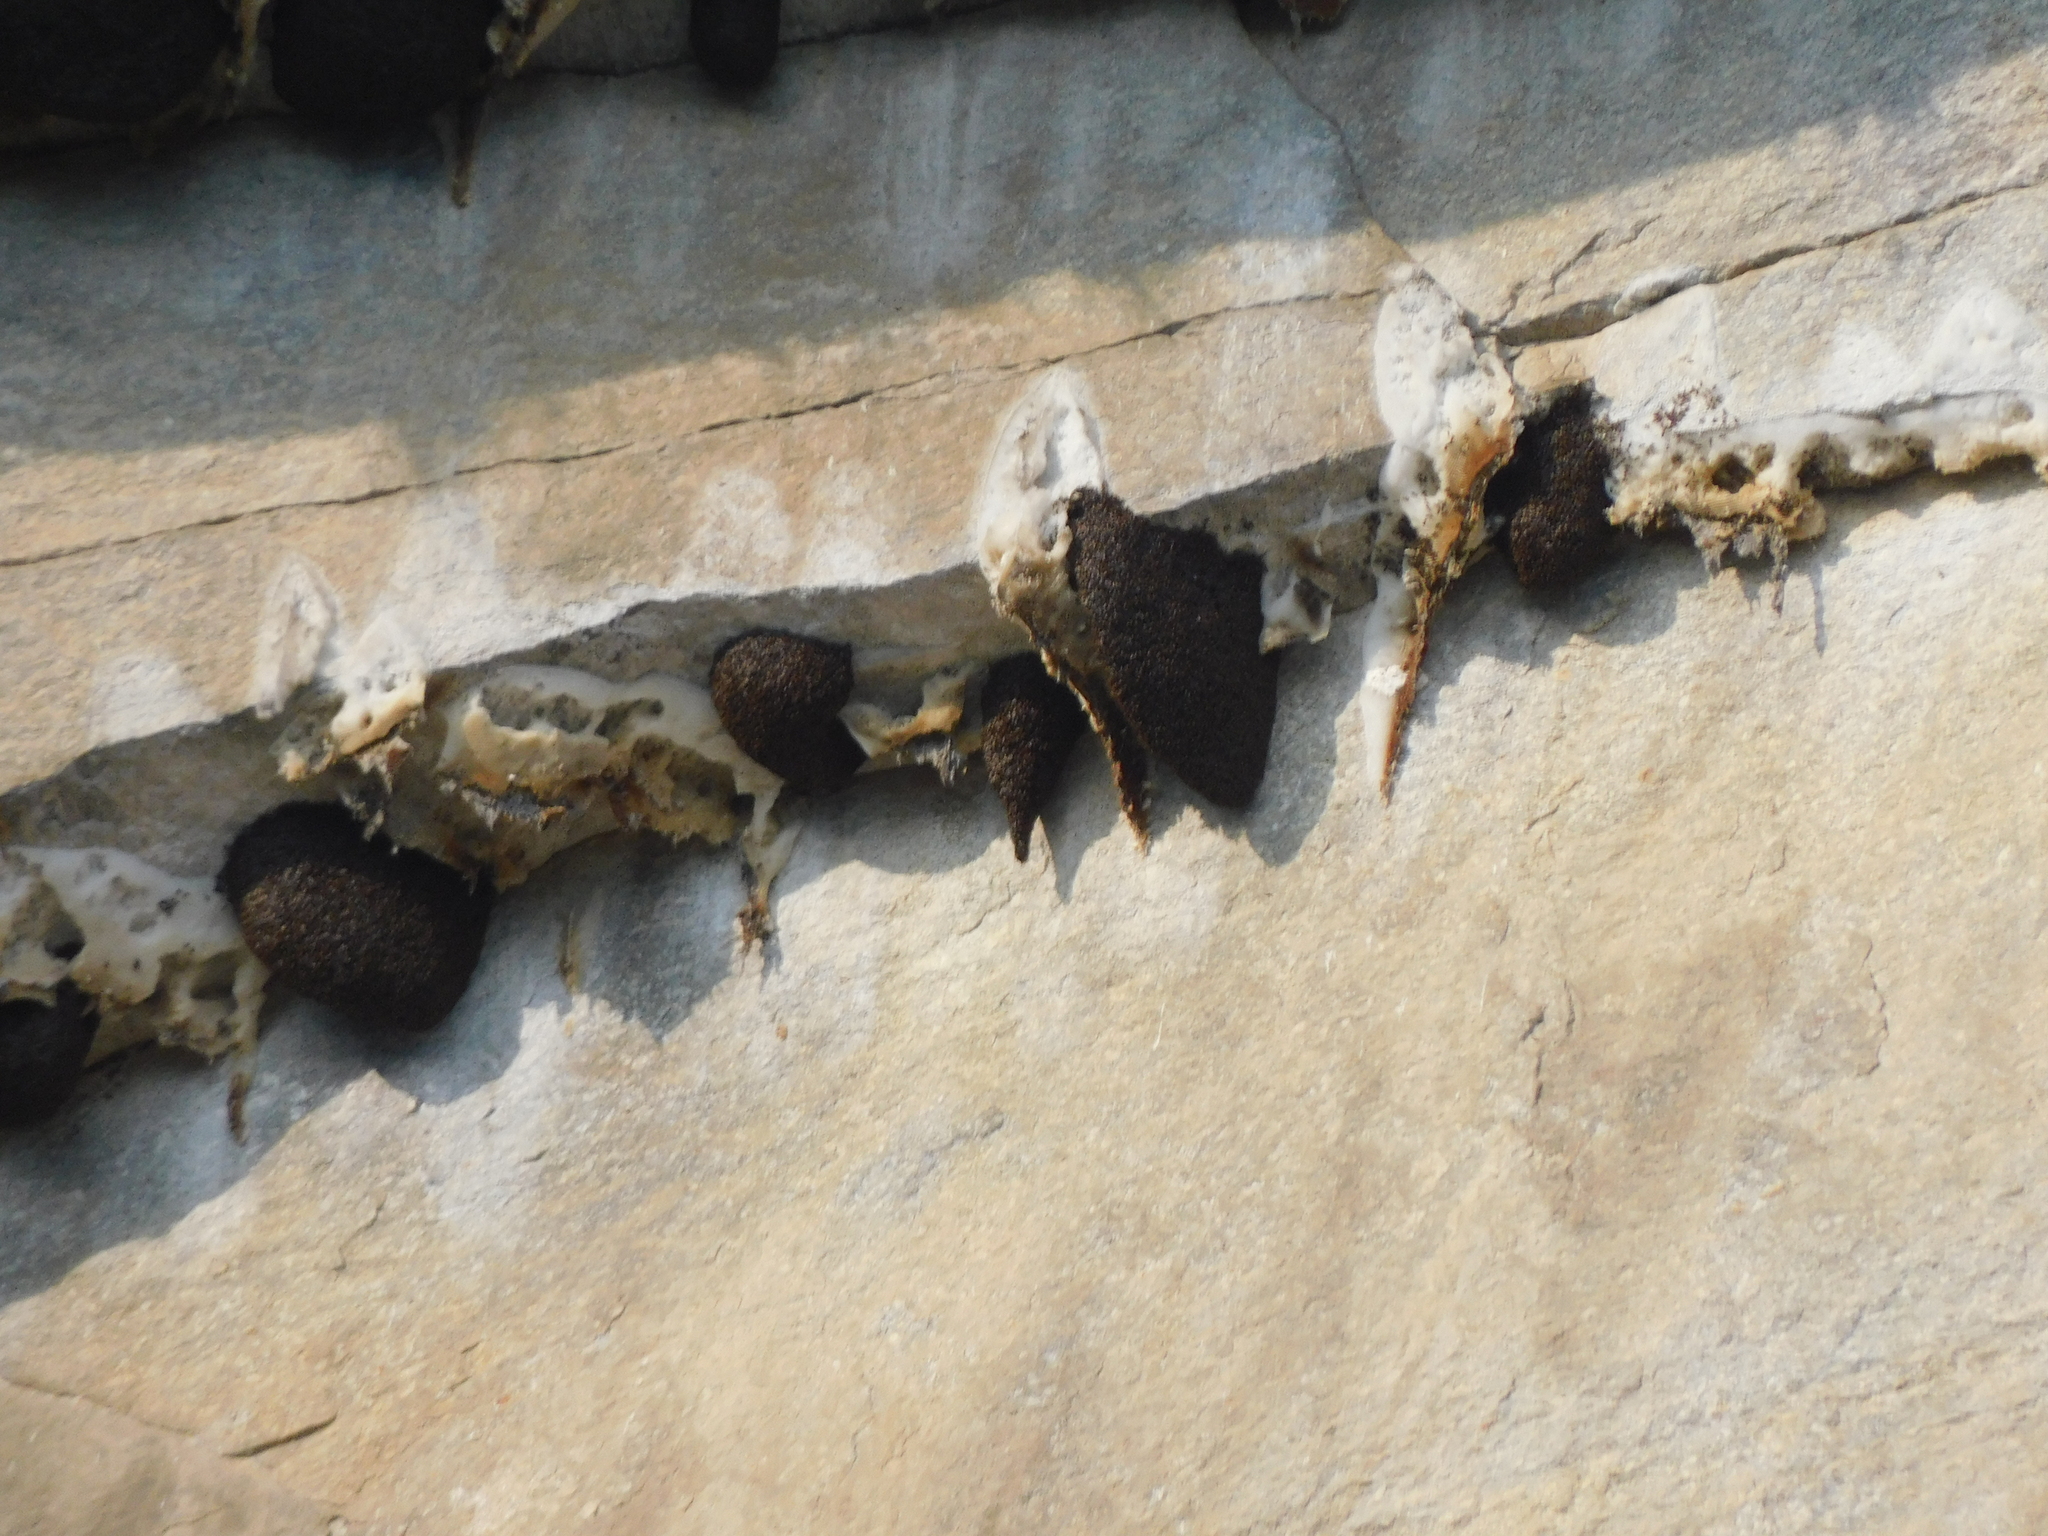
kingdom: Animalia
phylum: Arthropoda
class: Insecta
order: Hymenoptera
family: Apidae
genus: Apis
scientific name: Apis laboriosa
